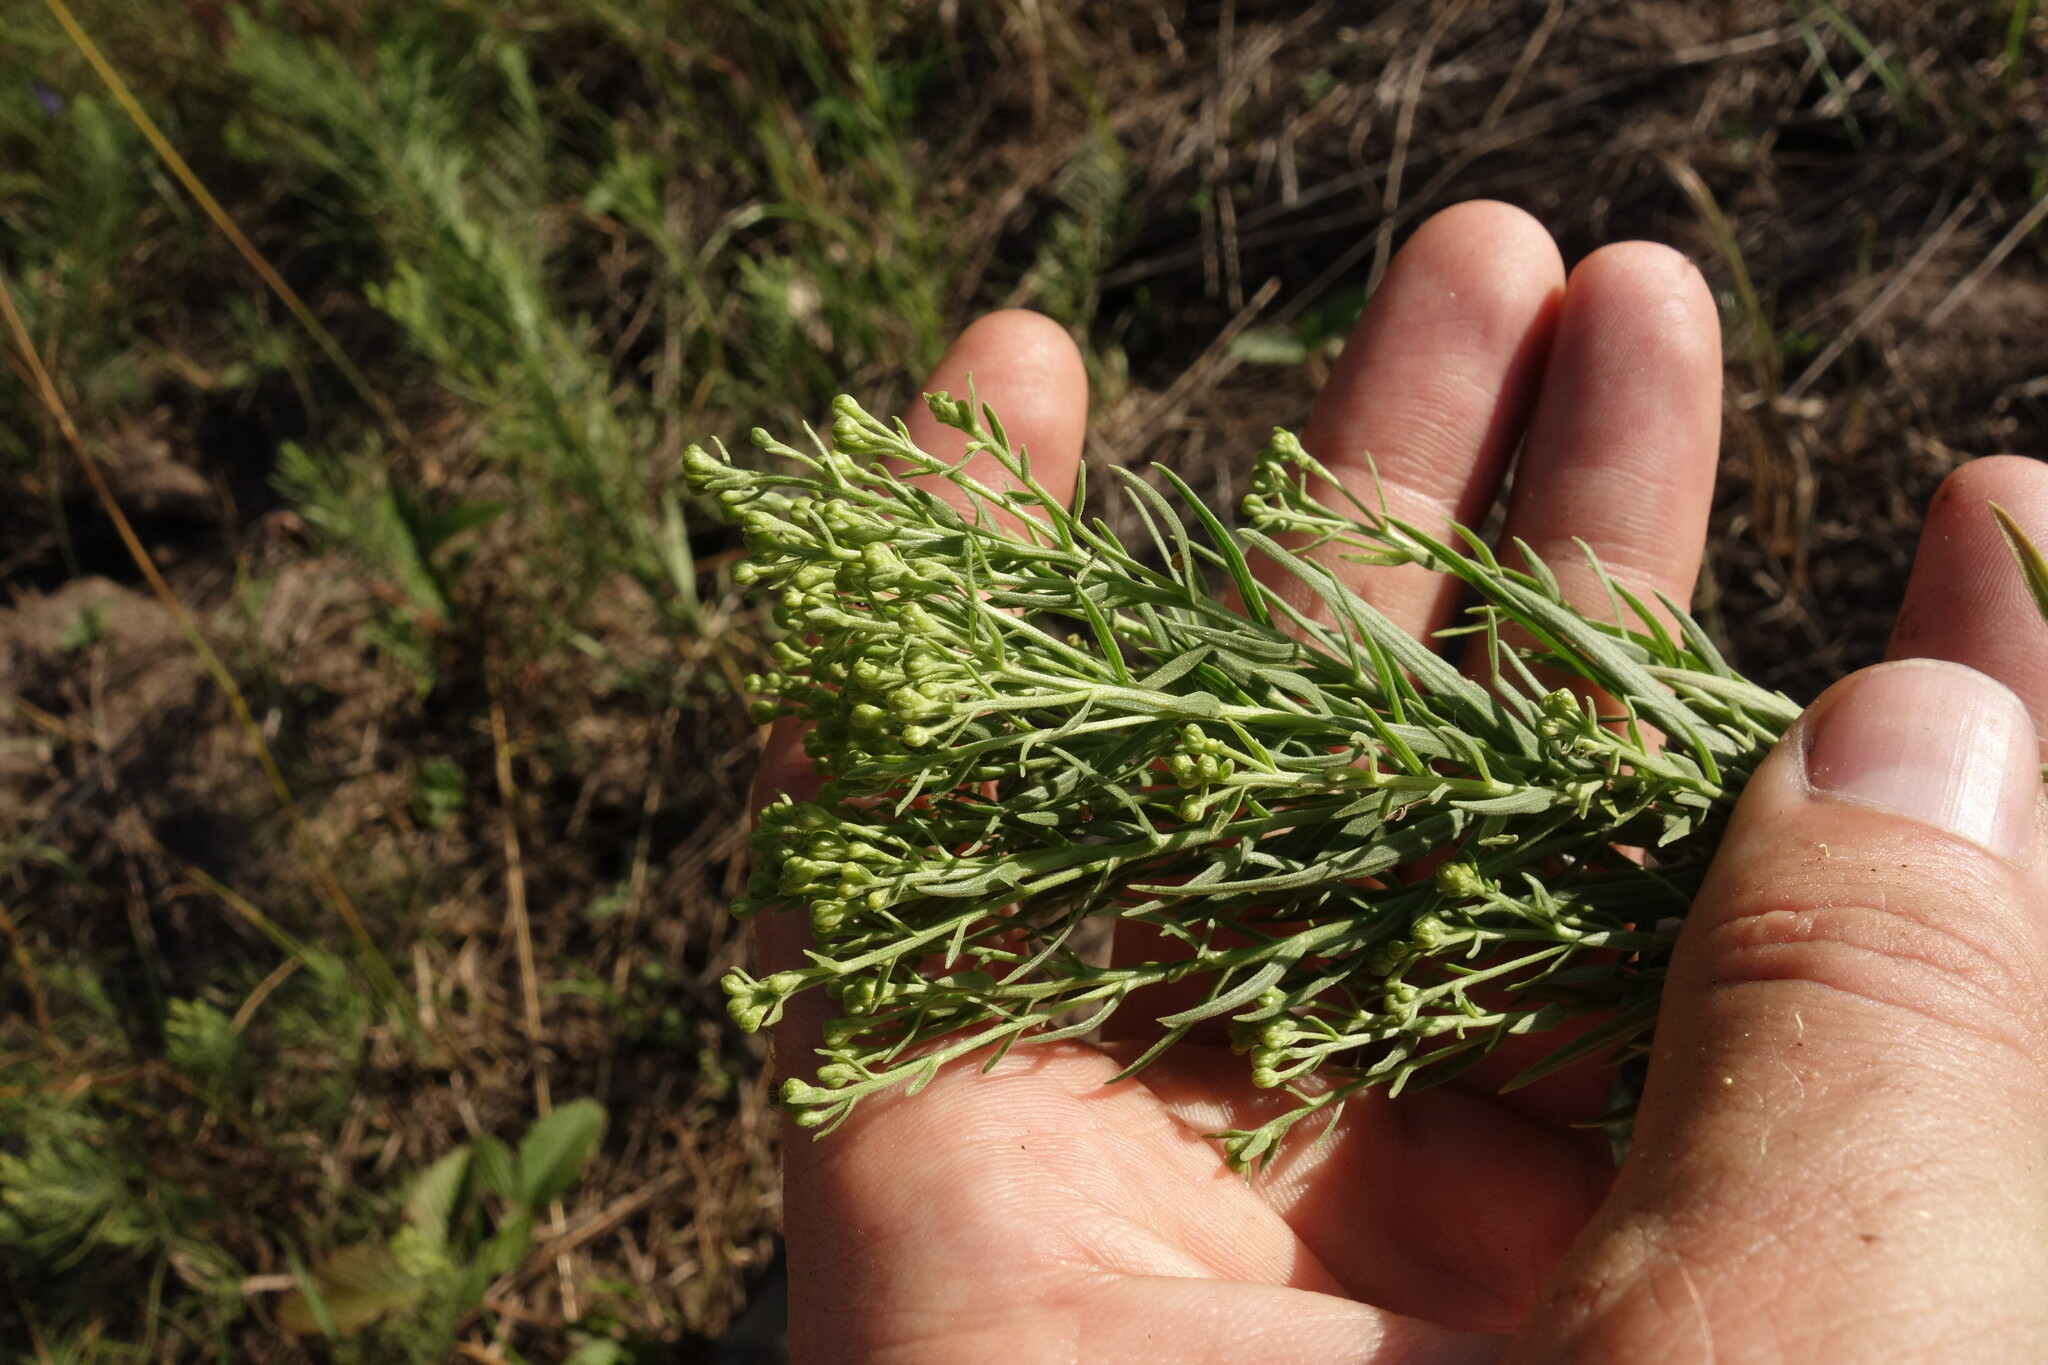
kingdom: Plantae
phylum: Tracheophyta
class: Magnoliopsida
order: Asterales
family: Asteraceae
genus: Galatella
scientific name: Galatella biflora
